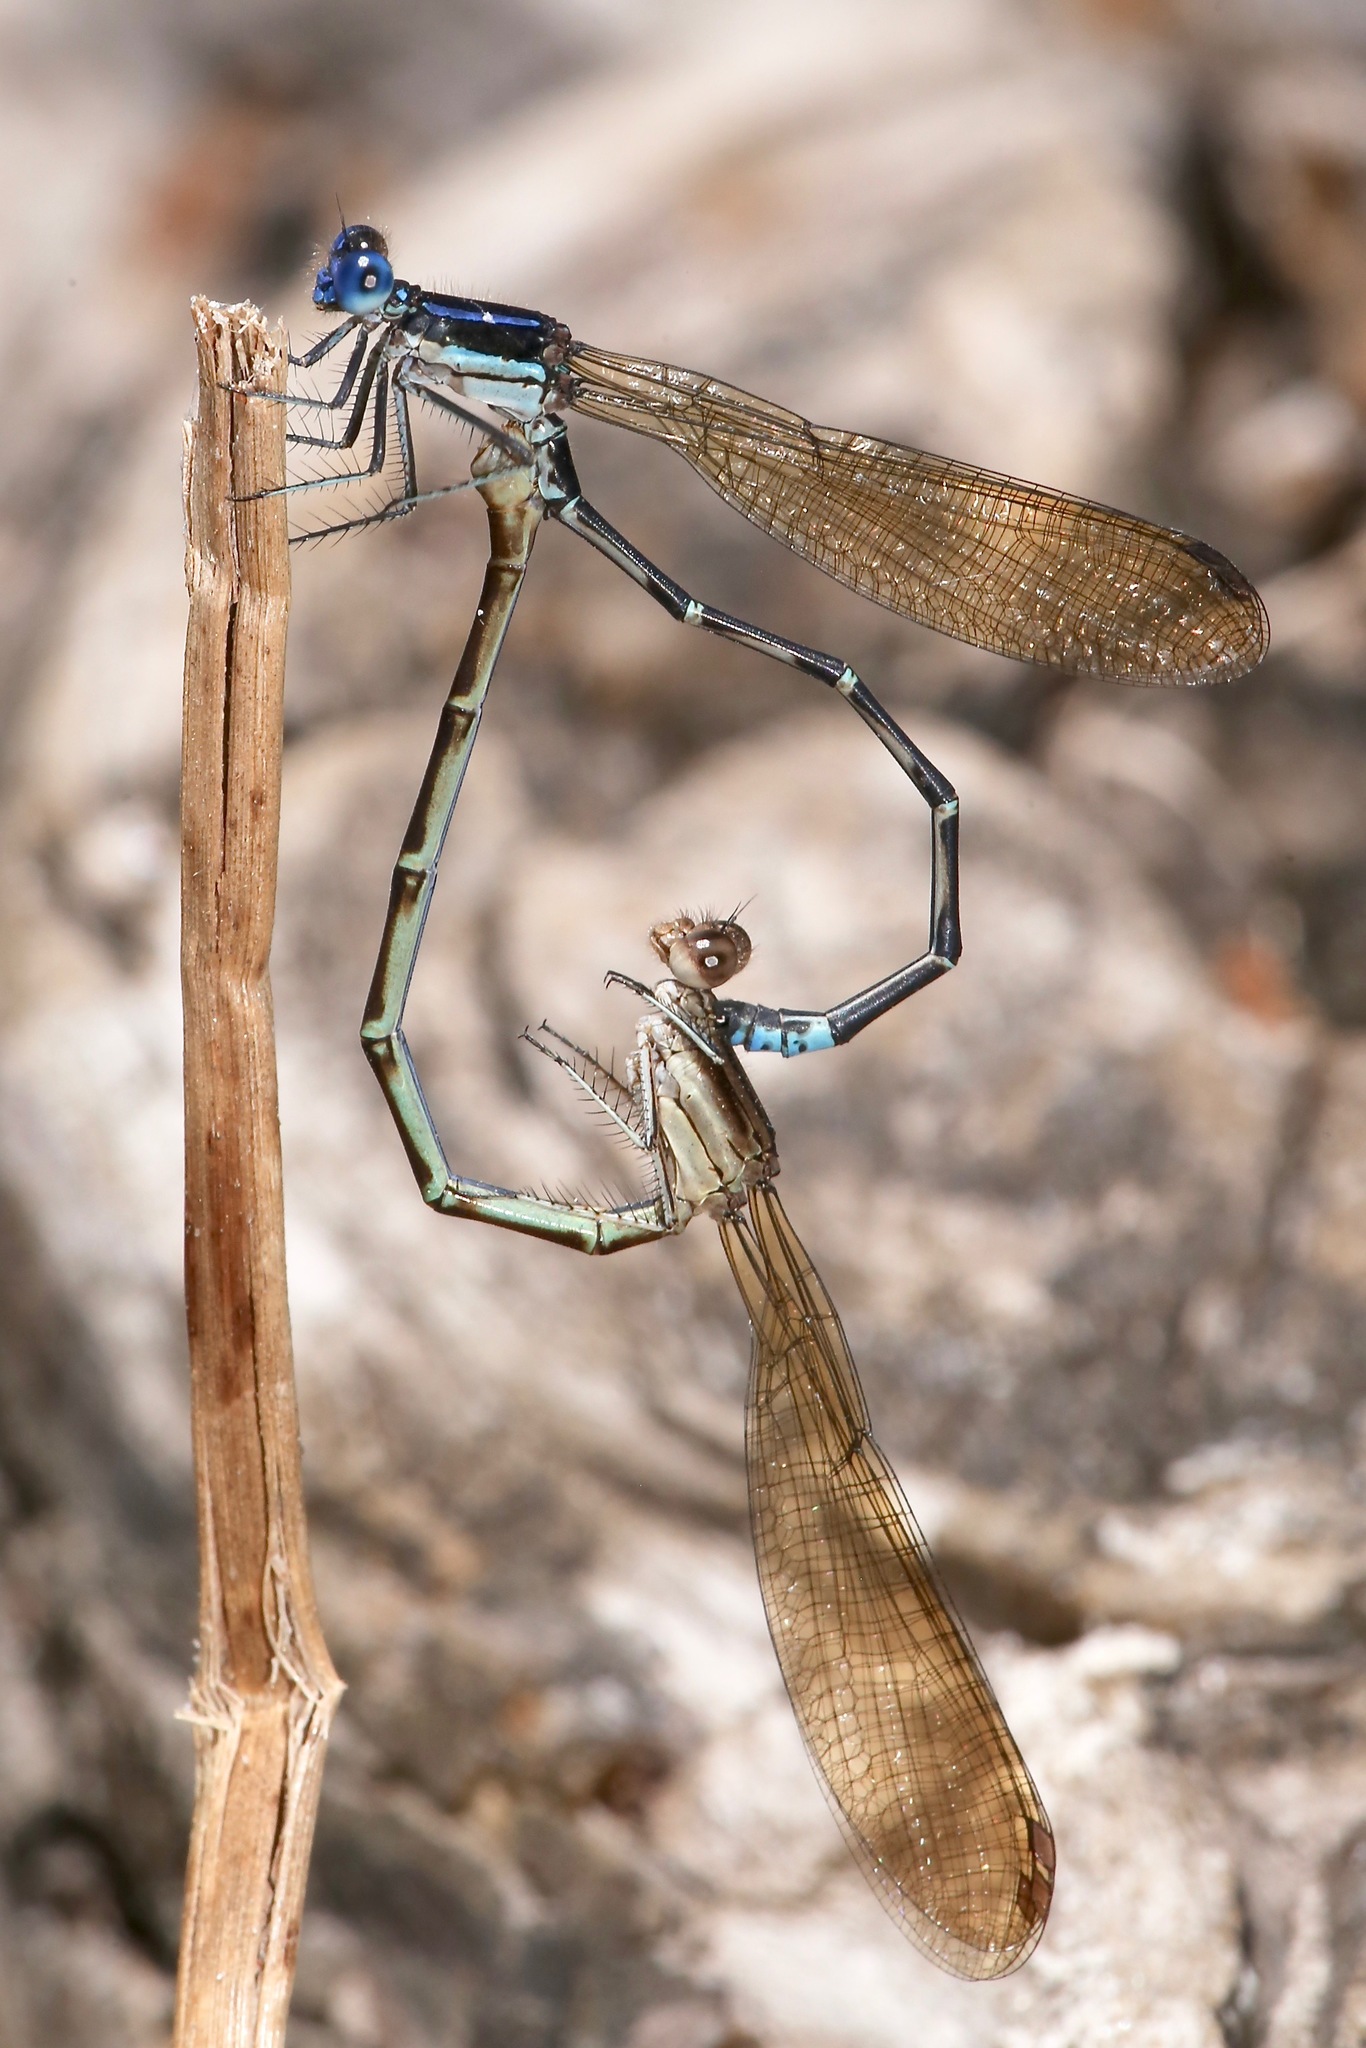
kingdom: Animalia
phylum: Arthropoda
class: Insecta
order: Odonata
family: Coenagrionidae
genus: Argia
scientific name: Argia sedula
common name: Blue-ringed dancer
